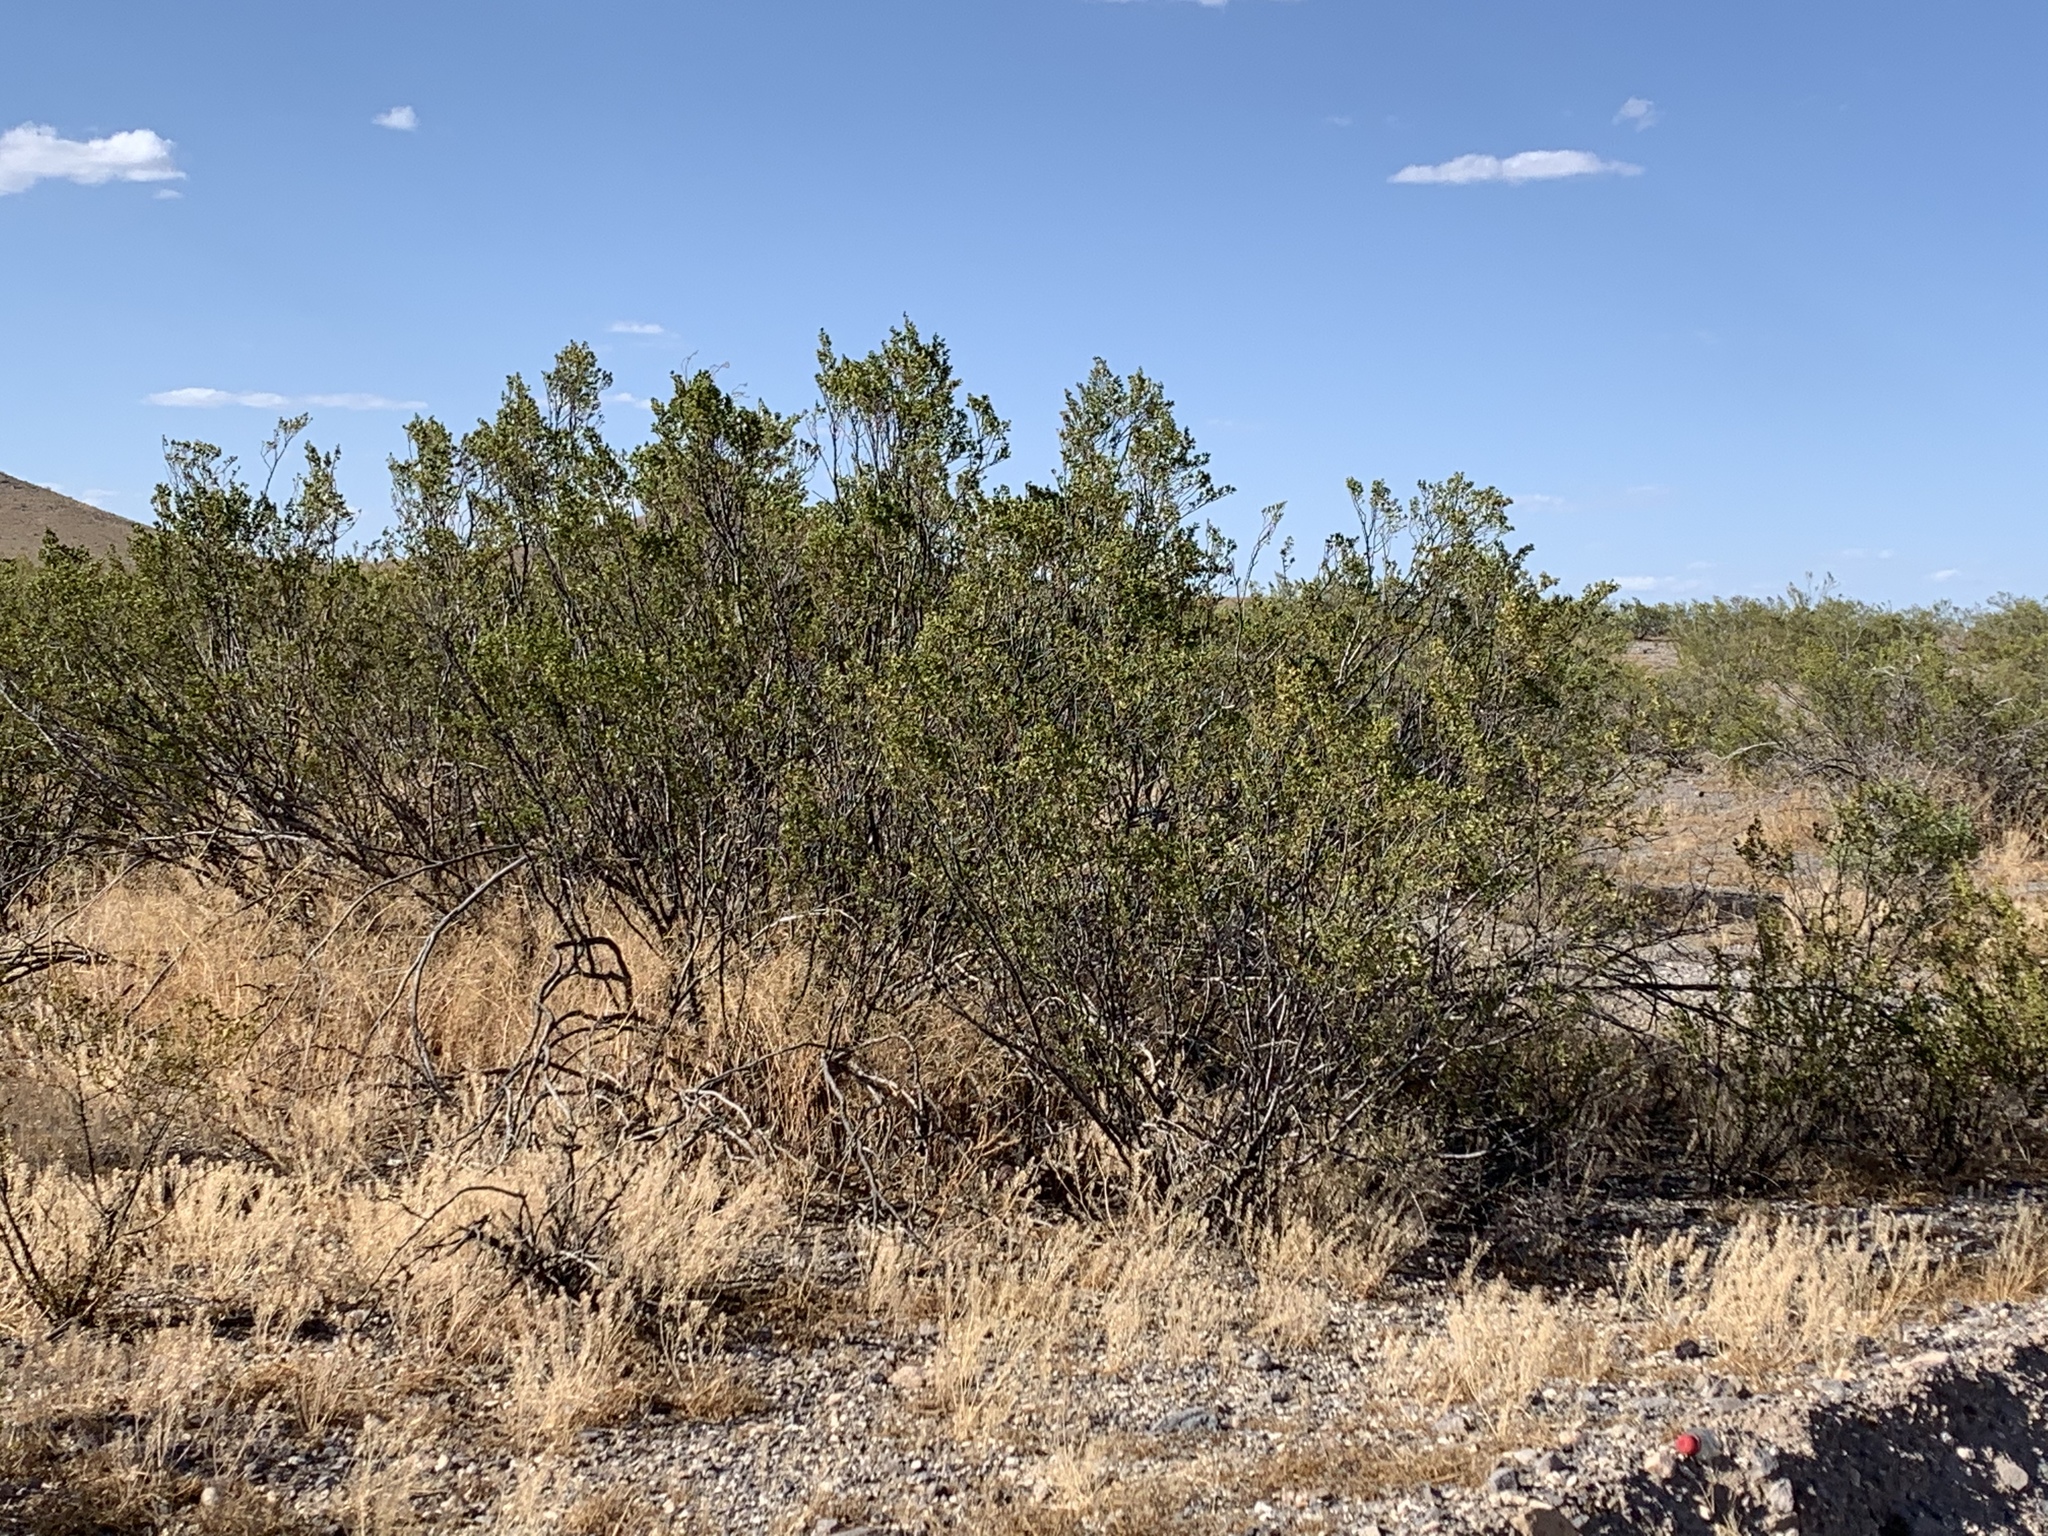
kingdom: Plantae
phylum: Tracheophyta
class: Magnoliopsida
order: Zygophyllales
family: Zygophyllaceae
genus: Larrea
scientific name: Larrea tridentata
